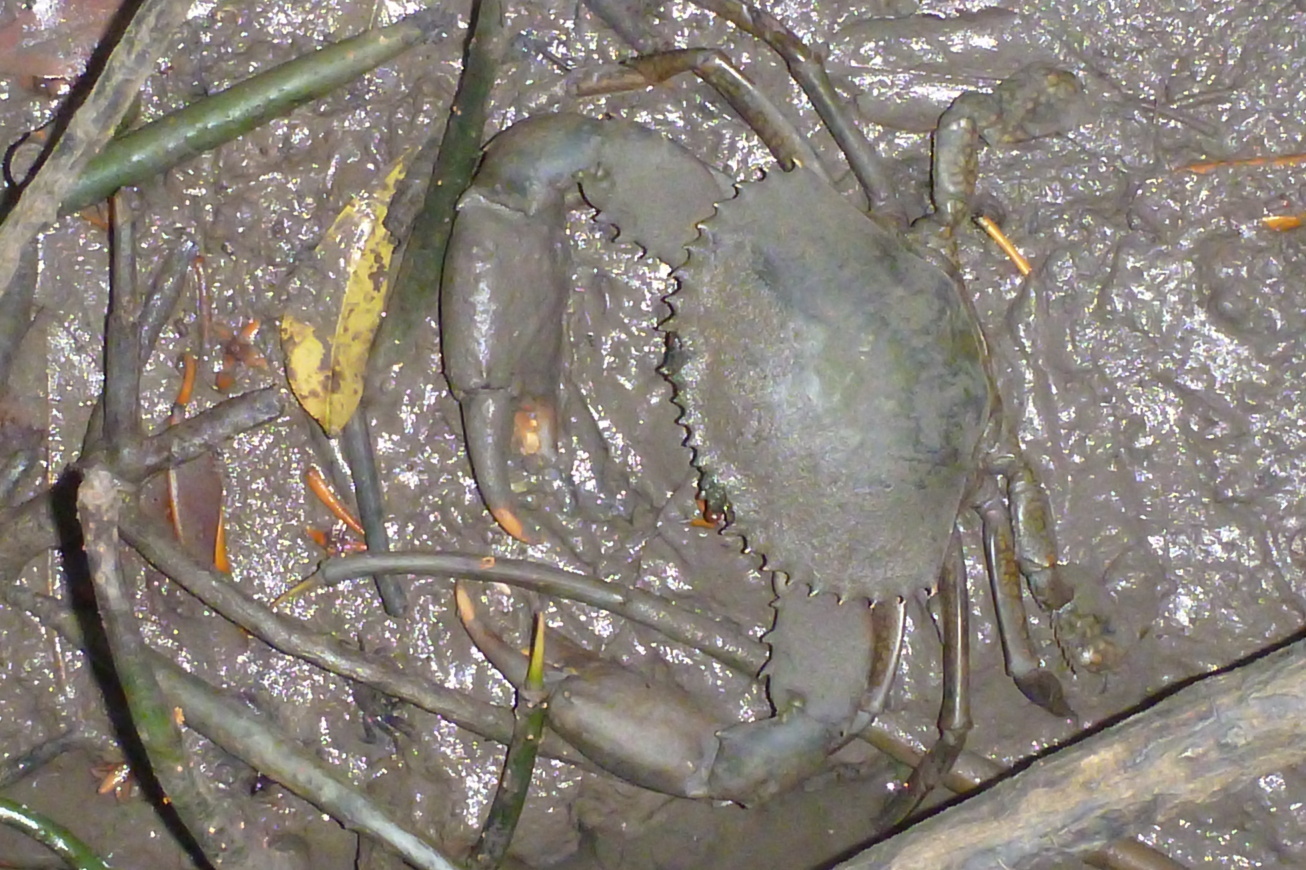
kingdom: Animalia
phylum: Arthropoda
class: Malacostraca
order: Decapoda
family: Portunidae
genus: Scylla
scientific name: Scylla serrata
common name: Giant mud crab
